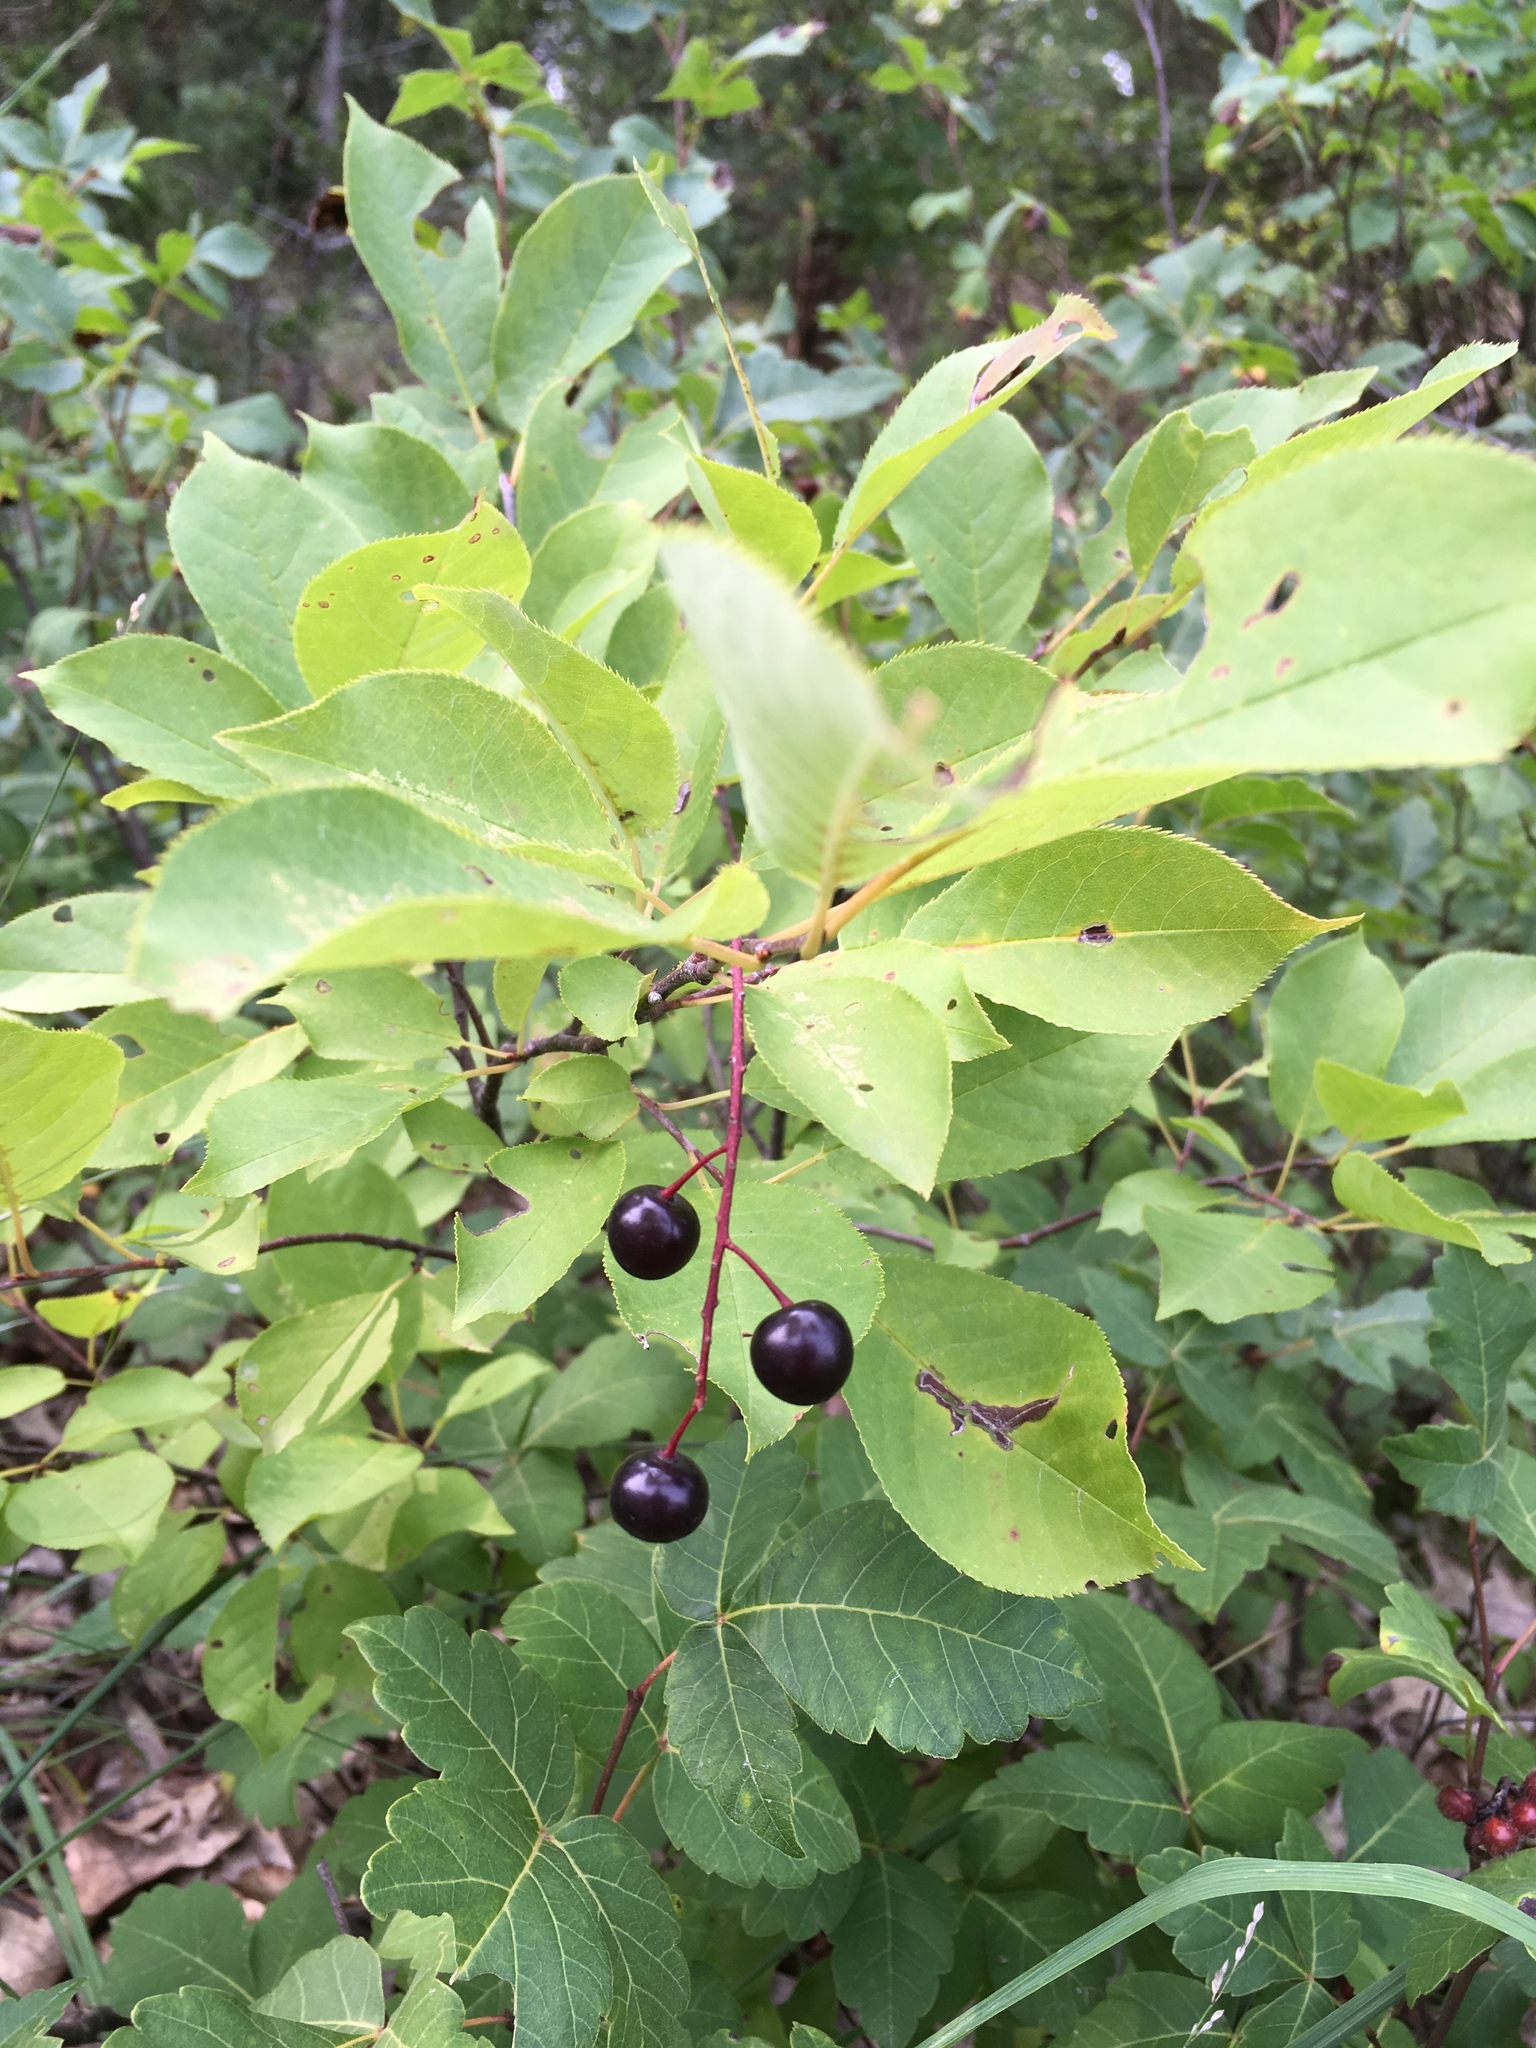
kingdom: Plantae
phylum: Tracheophyta
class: Magnoliopsida
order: Rosales
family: Rosaceae
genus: Prunus
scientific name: Prunus virginiana
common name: Chokecherry
